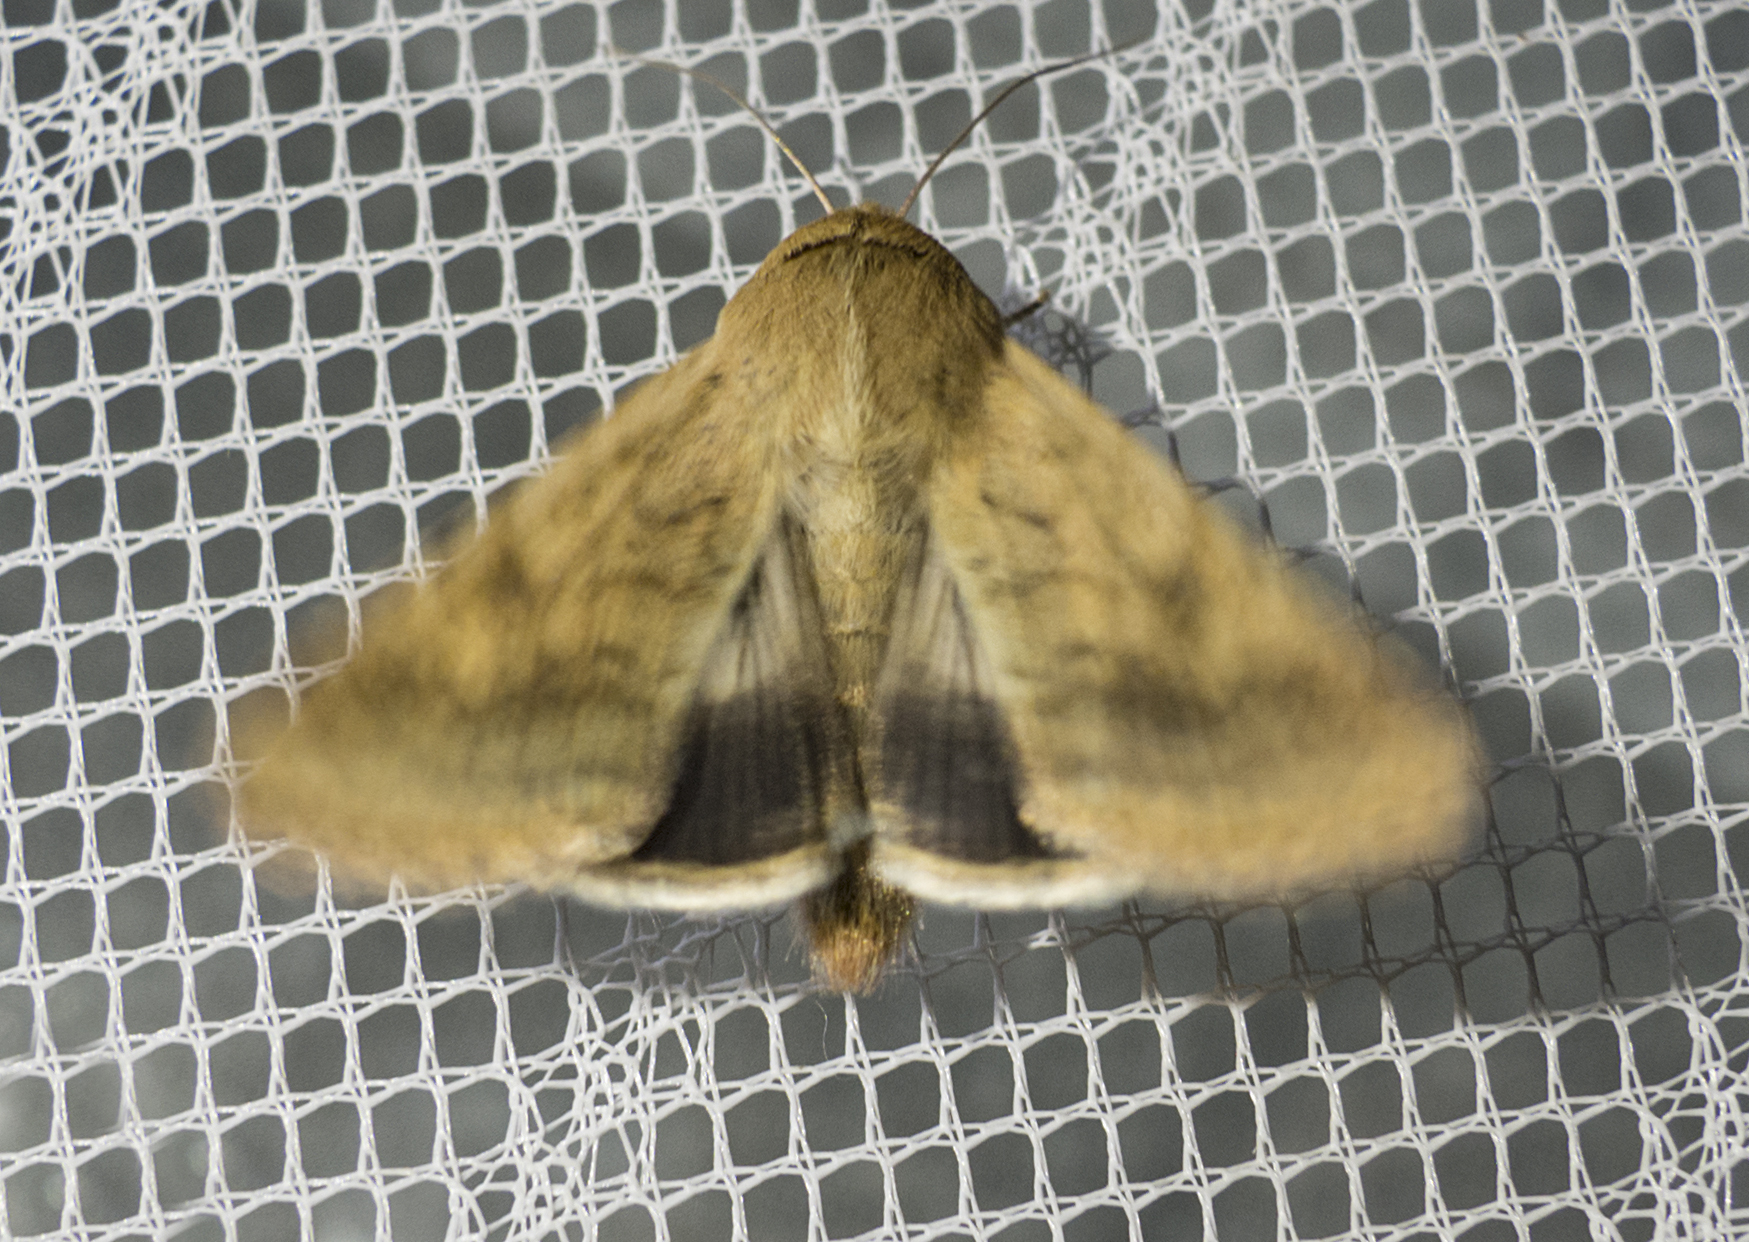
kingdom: Animalia
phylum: Arthropoda
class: Insecta
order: Lepidoptera
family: Noctuidae
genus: Helicoverpa
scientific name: Helicoverpa armigera
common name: Cotton bollworm
